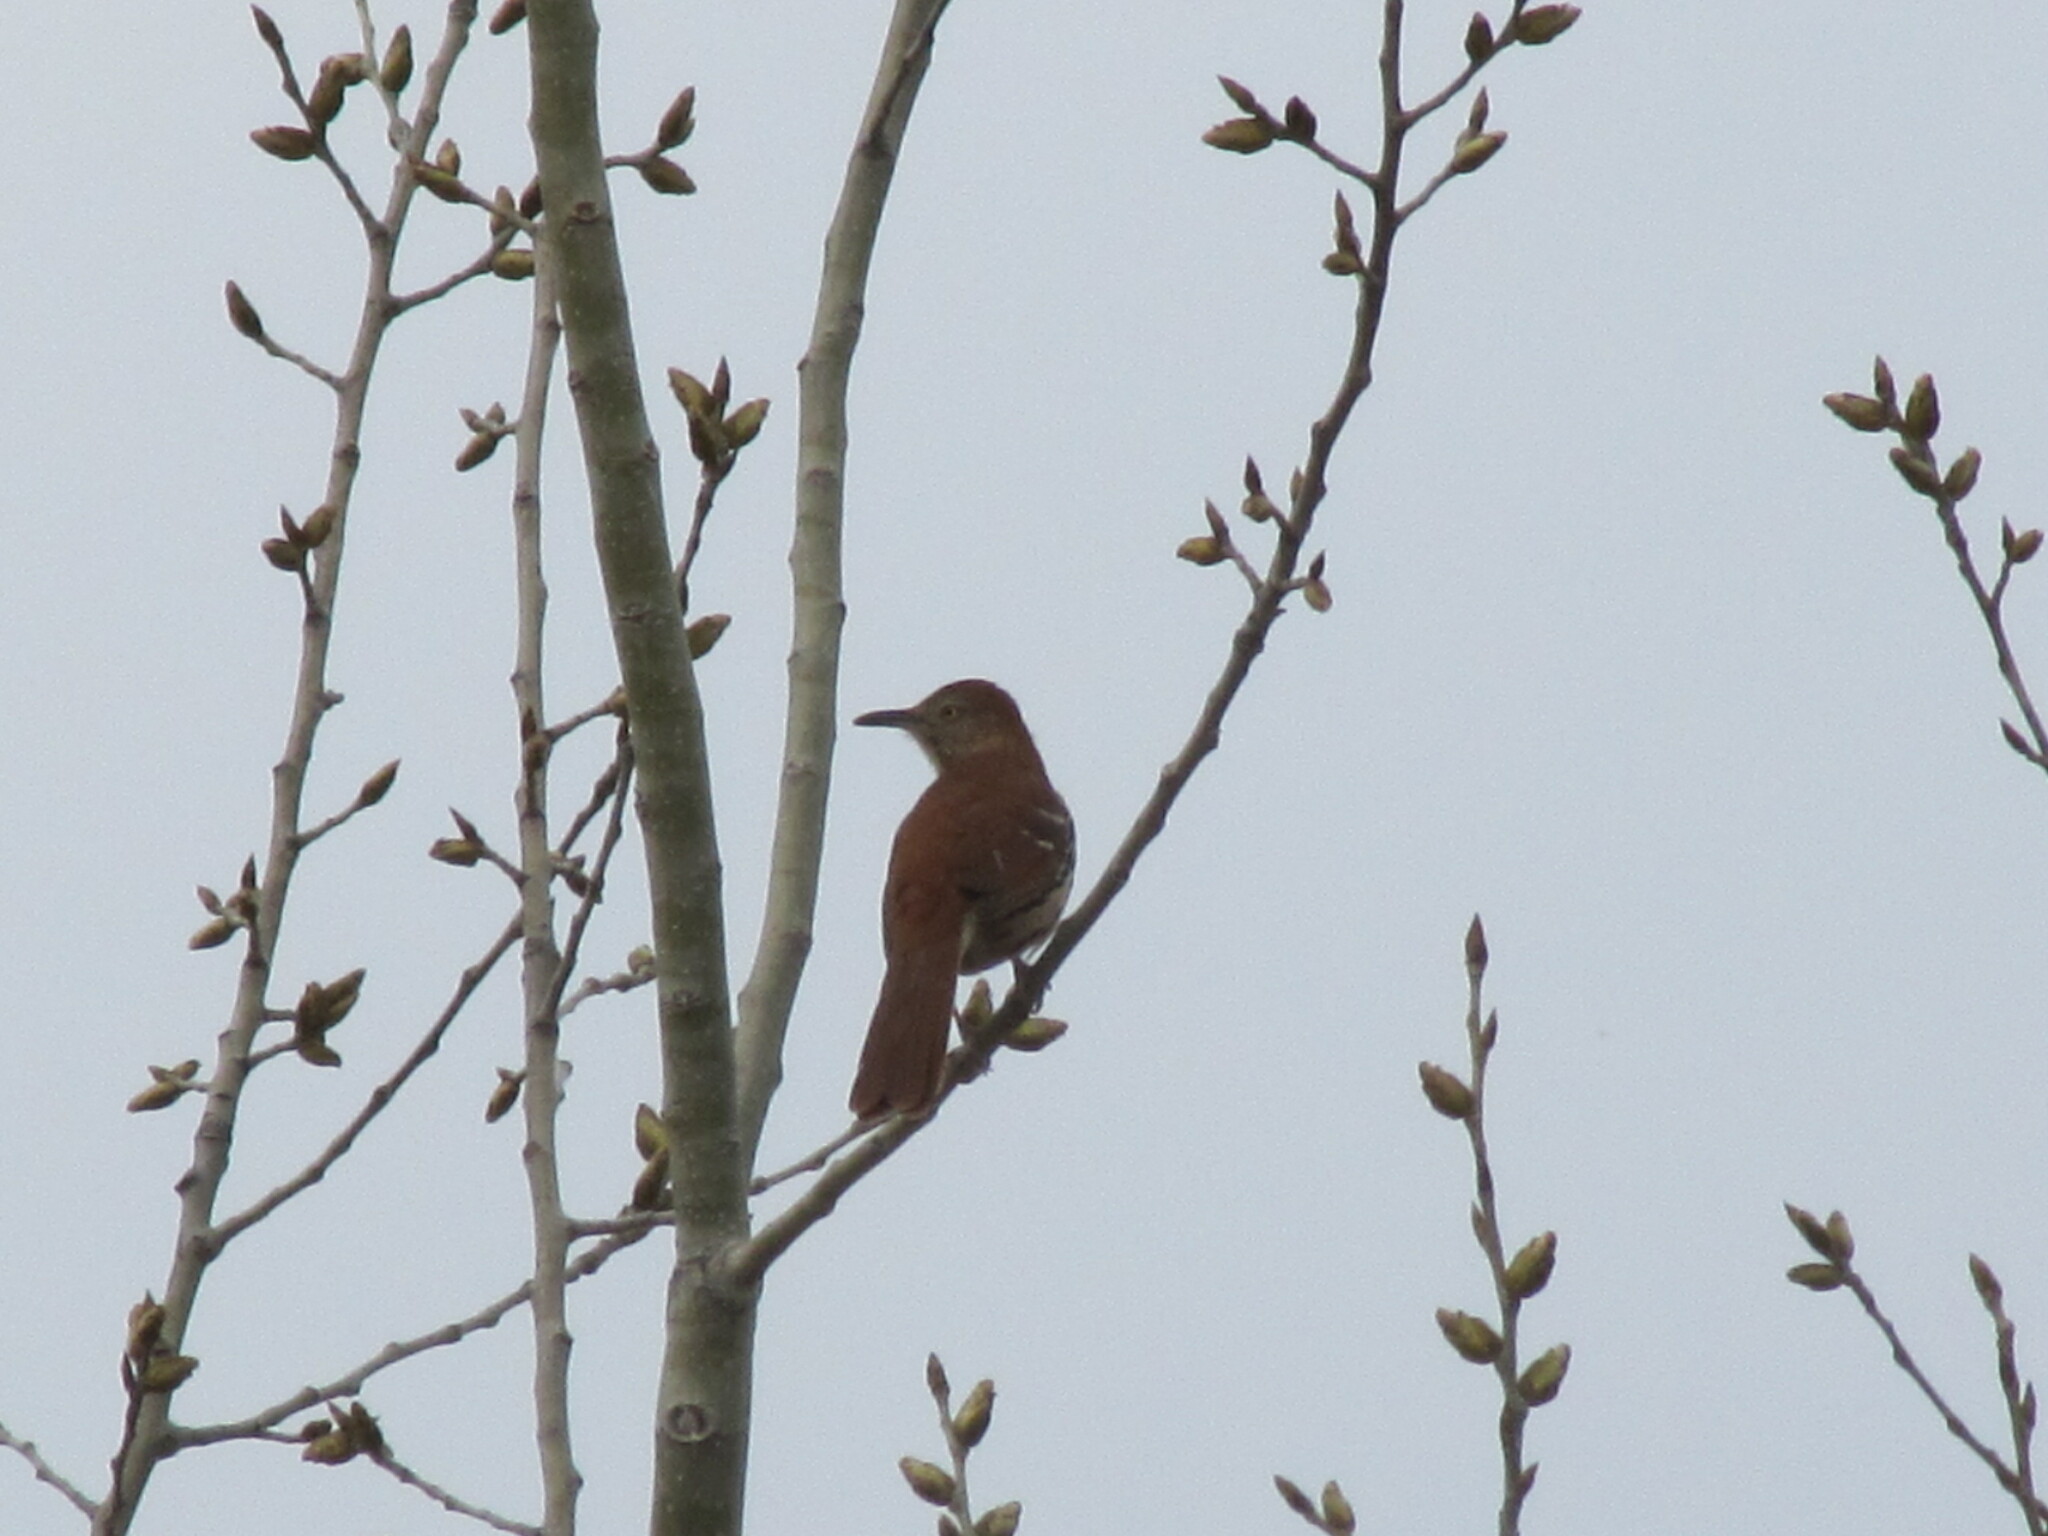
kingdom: Animalia
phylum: Chordata
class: Aves
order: Passeriformes
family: Mimidae
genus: Toxostoma
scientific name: Toxostoma rufum
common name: Brown thrasher
